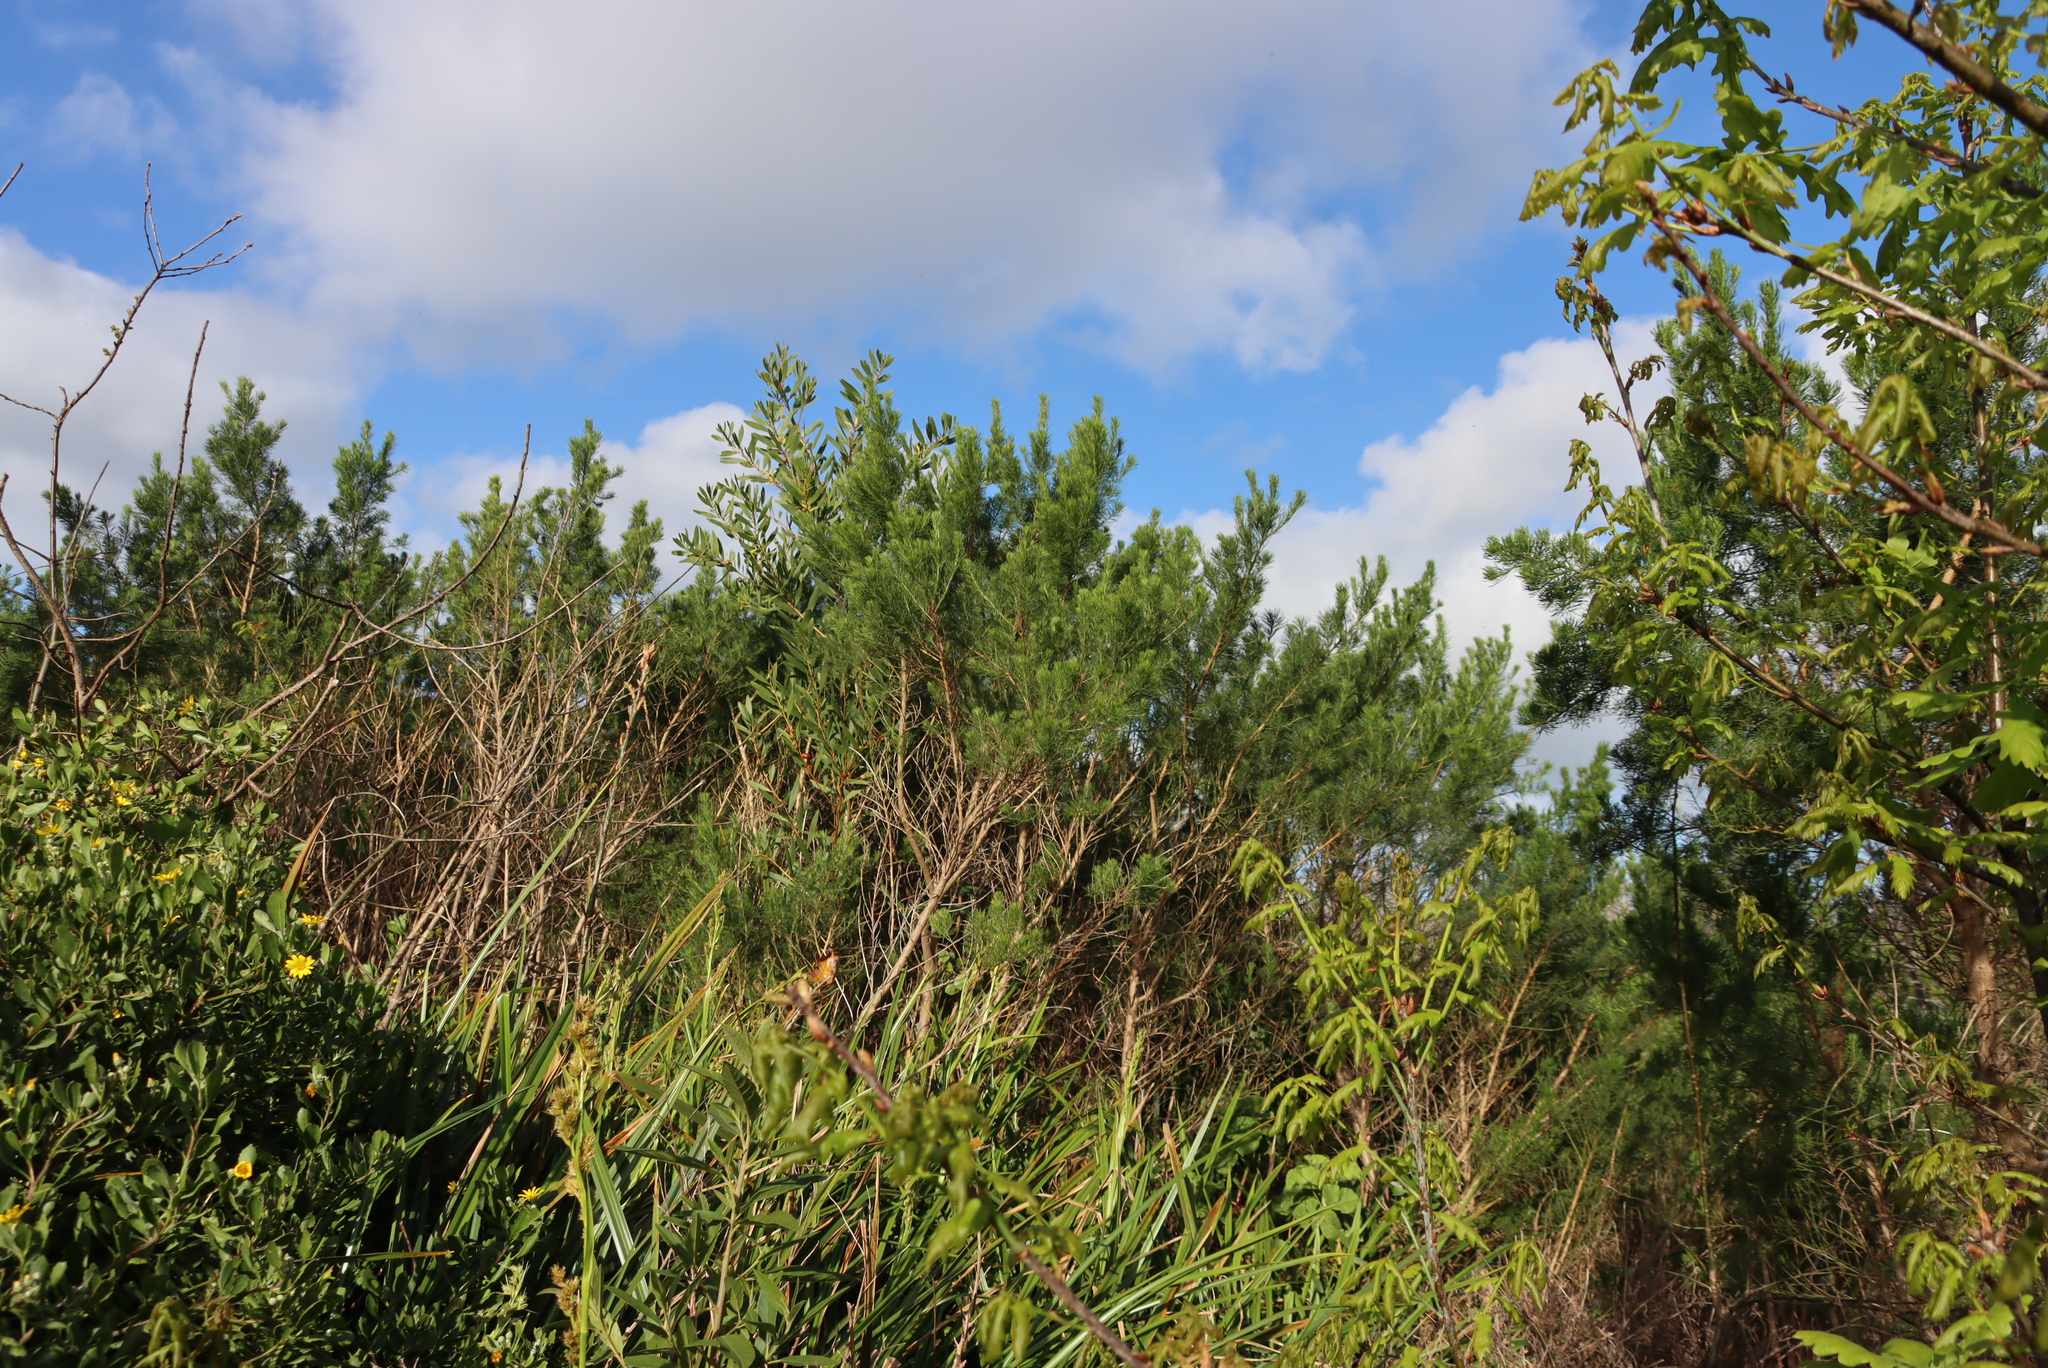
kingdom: Plantae
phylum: Tracheophyta
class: Magnoliopsida
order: Fabales
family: Fabaceae
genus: Psoralea
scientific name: Psoralea pinnata
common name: African scurfpea
